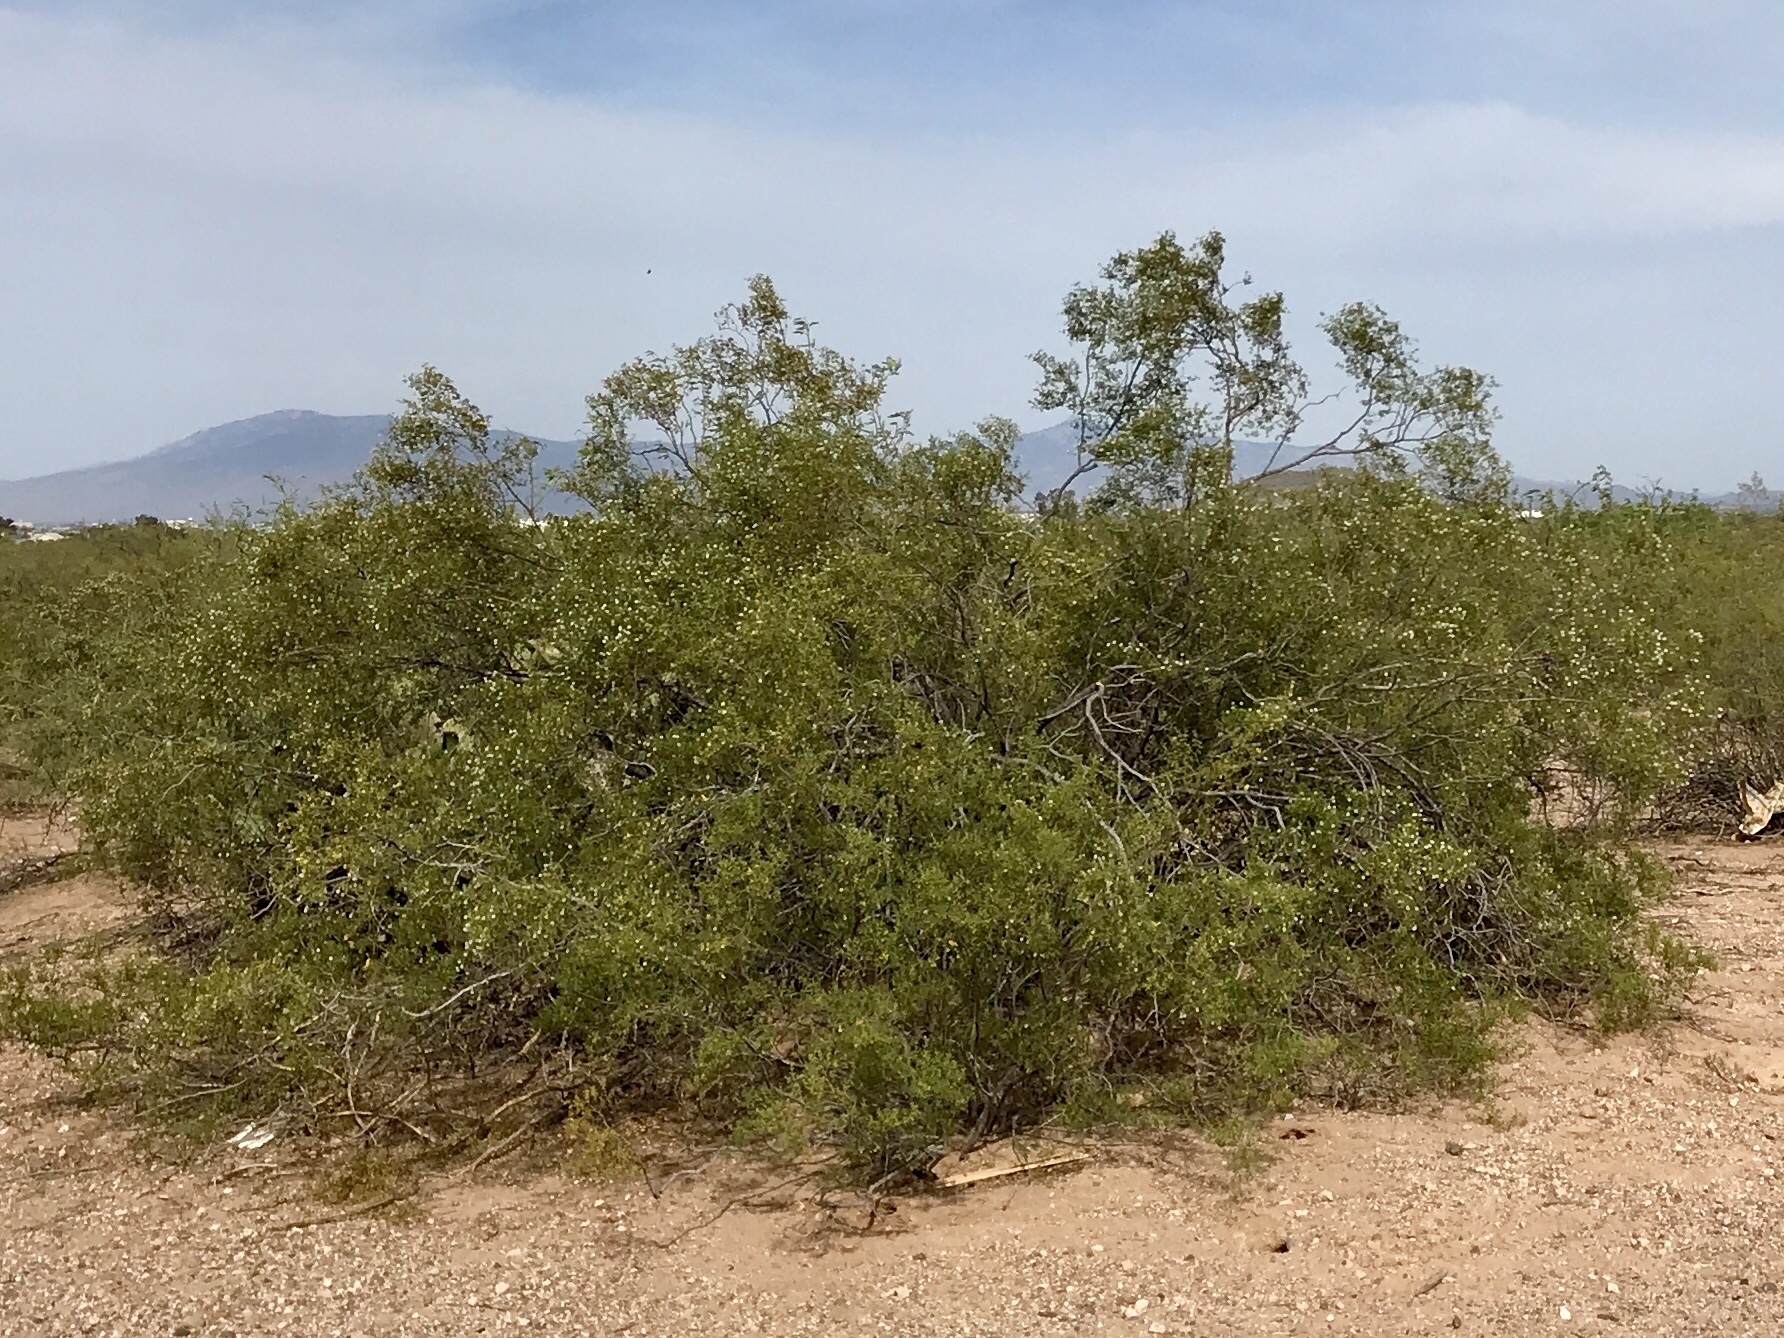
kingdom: Plantae
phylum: Tracheophyta
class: Magnoliopsida
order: Zygophyllales
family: Zygophyllaceae
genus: Larrea
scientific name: Larrea tridentata
